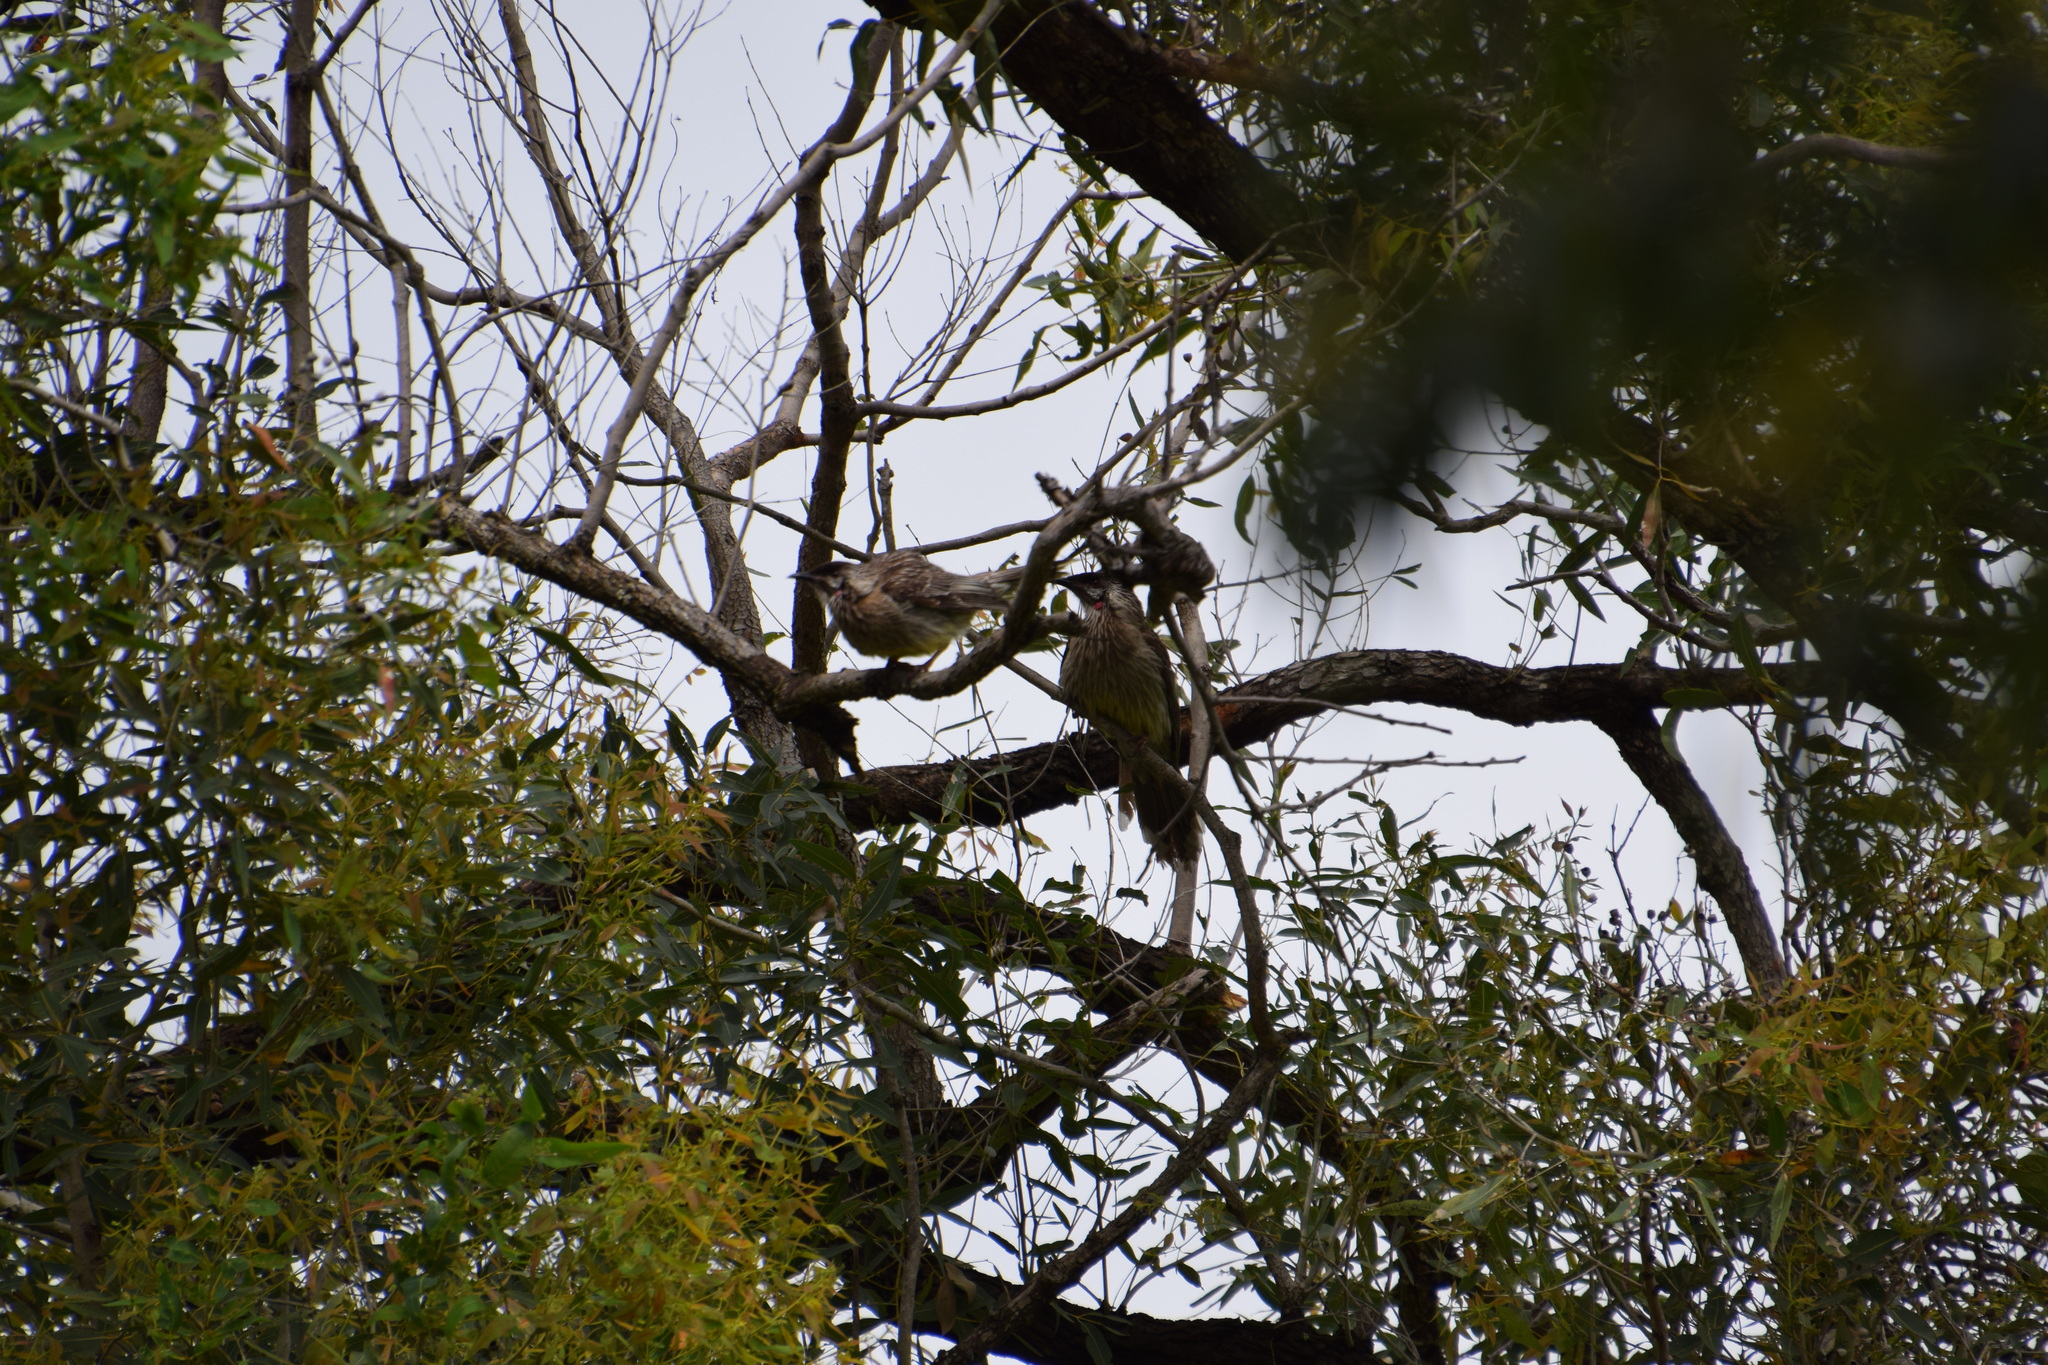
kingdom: Animalia
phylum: Chordata
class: Aves
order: Passeriformes
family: Meliphagidae
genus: Anthochaera
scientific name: Anthochaera carunculata
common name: Red wattlebird
